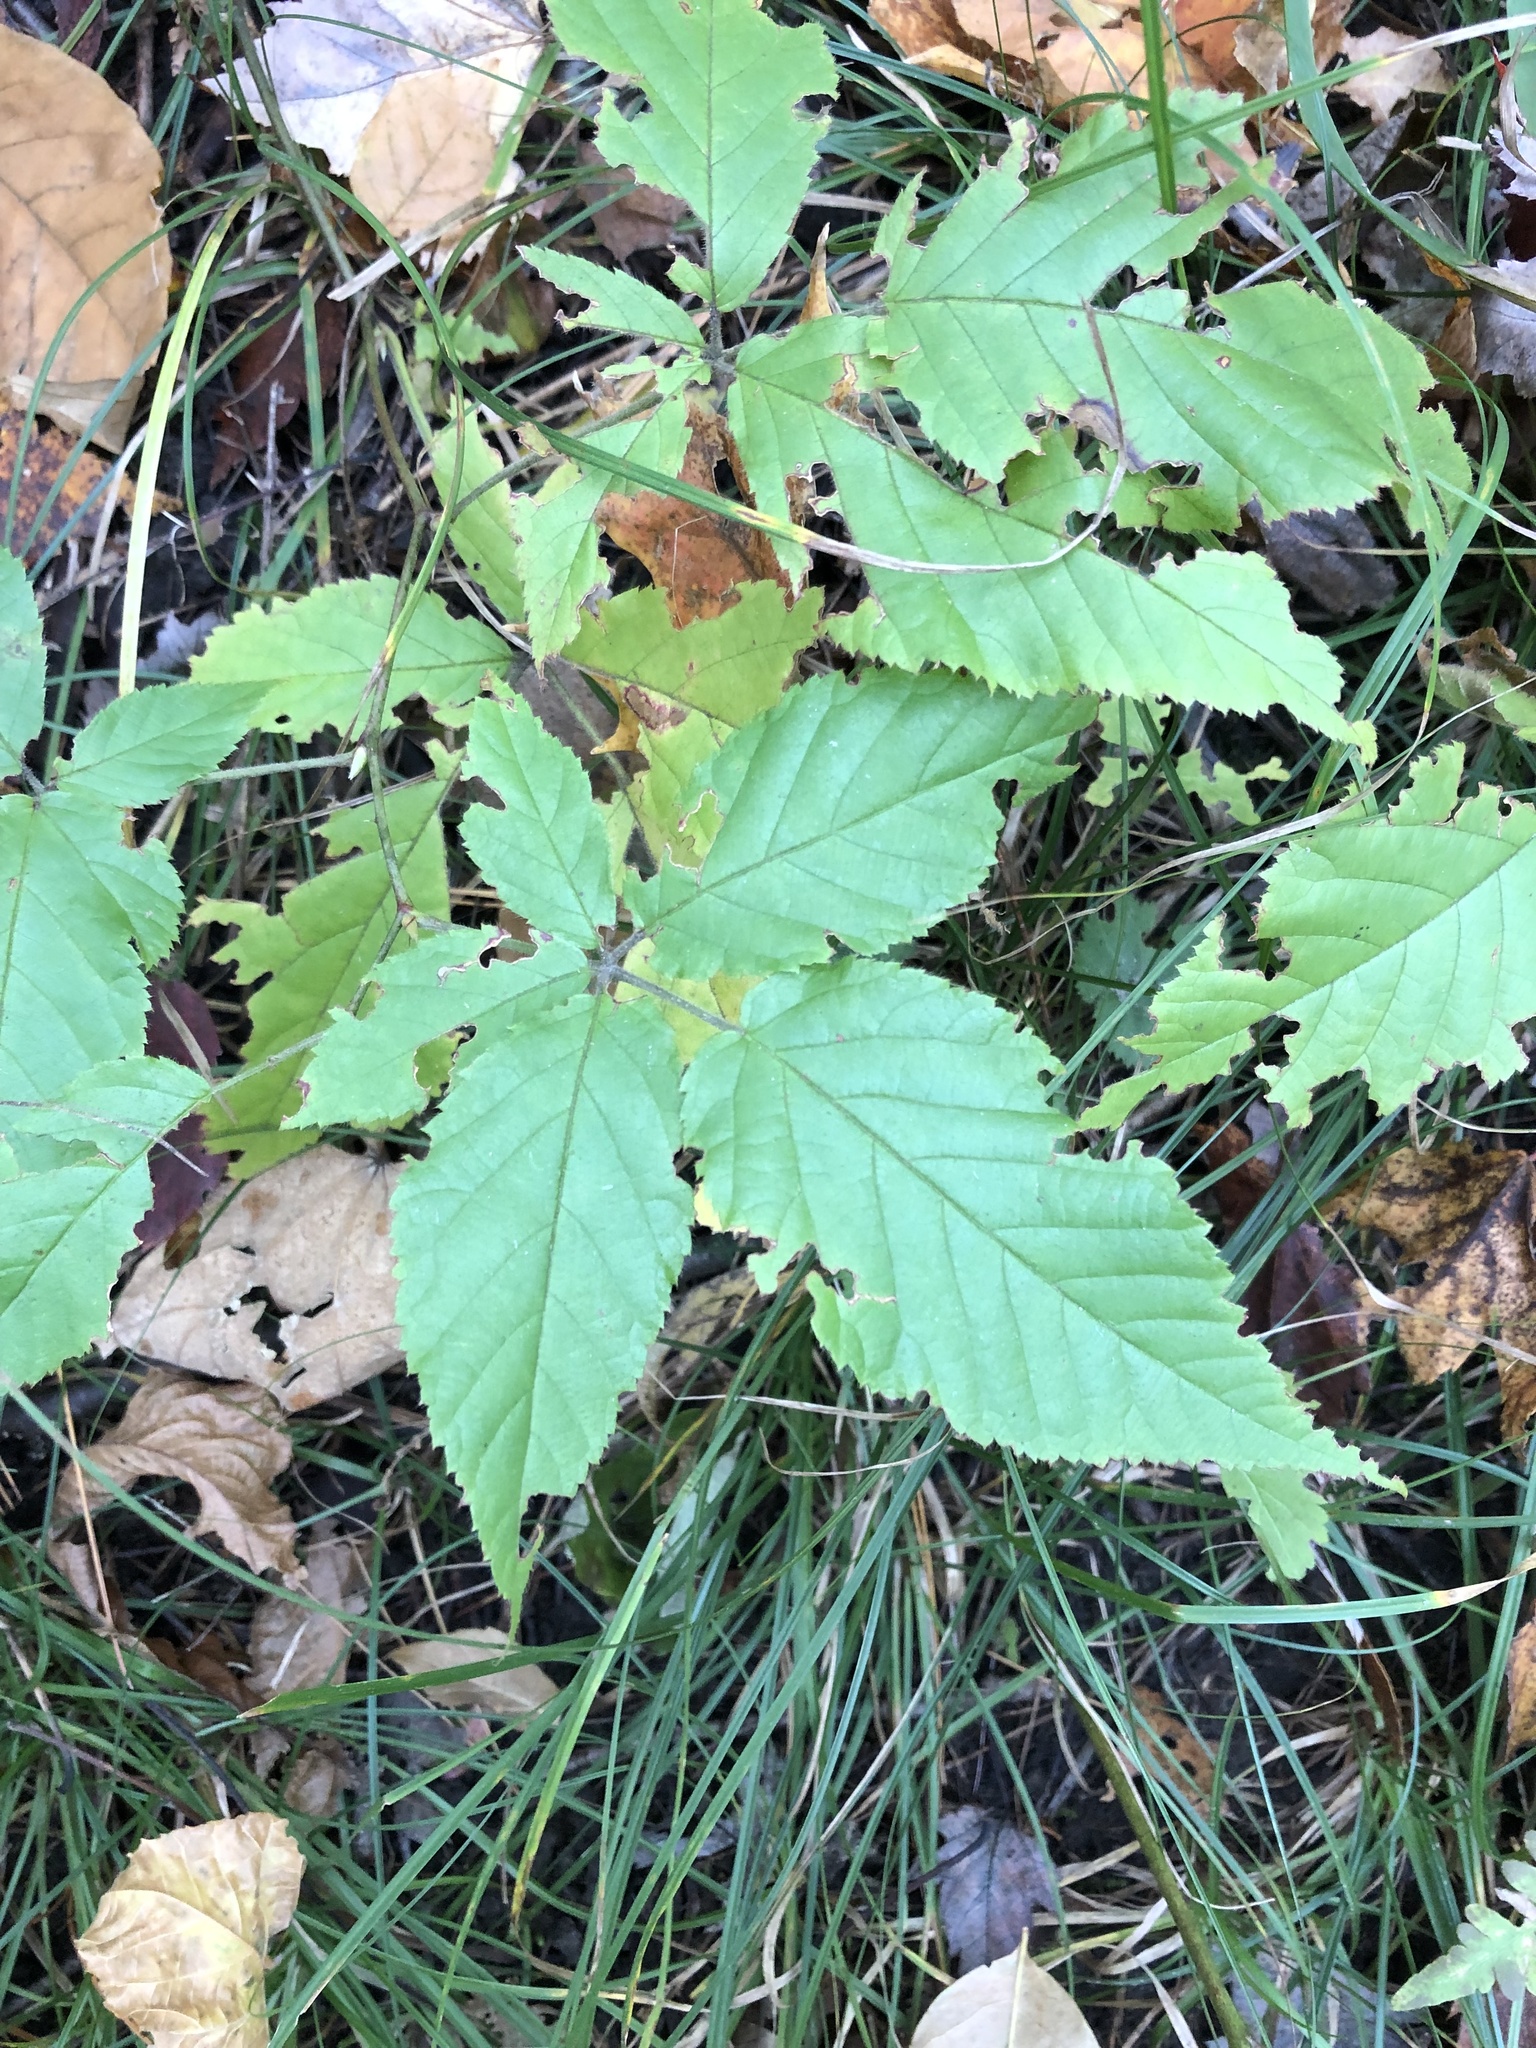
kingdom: Plantae
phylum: Tracheophyta
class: Magnoliopsida
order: Rosales
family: Rosaceae
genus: Rubus
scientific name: Rubus allegheniensis
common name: Allegheny blackberry
